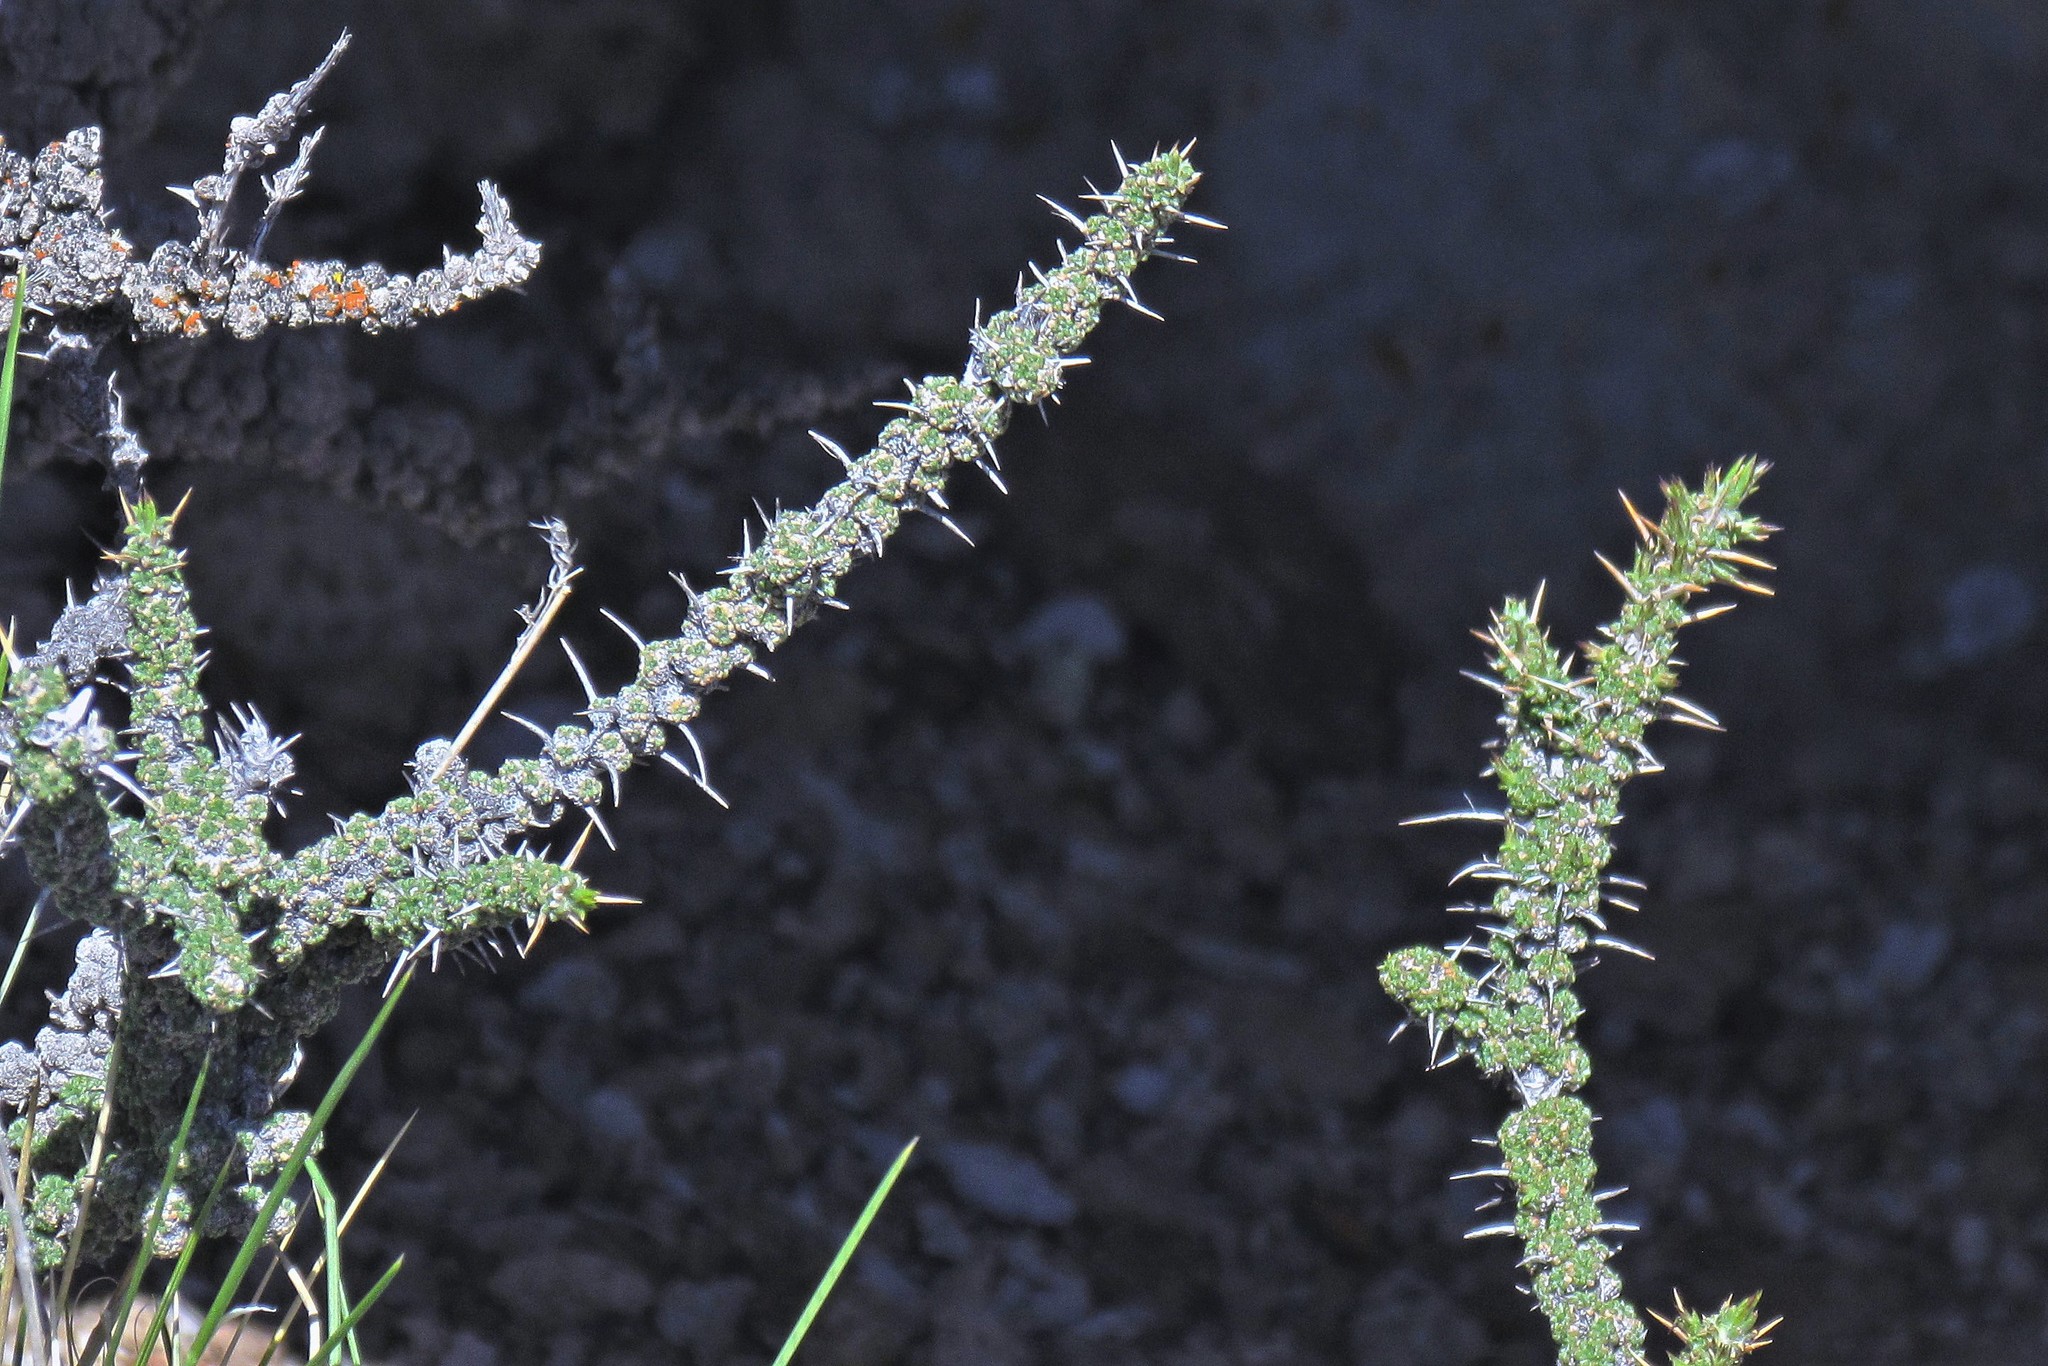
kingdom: Plantae
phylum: Tracheophyta
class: Magnoliopsida
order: Asterales
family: Asteraceae
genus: Nassauvia
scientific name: Nassauvia glomerulosa
